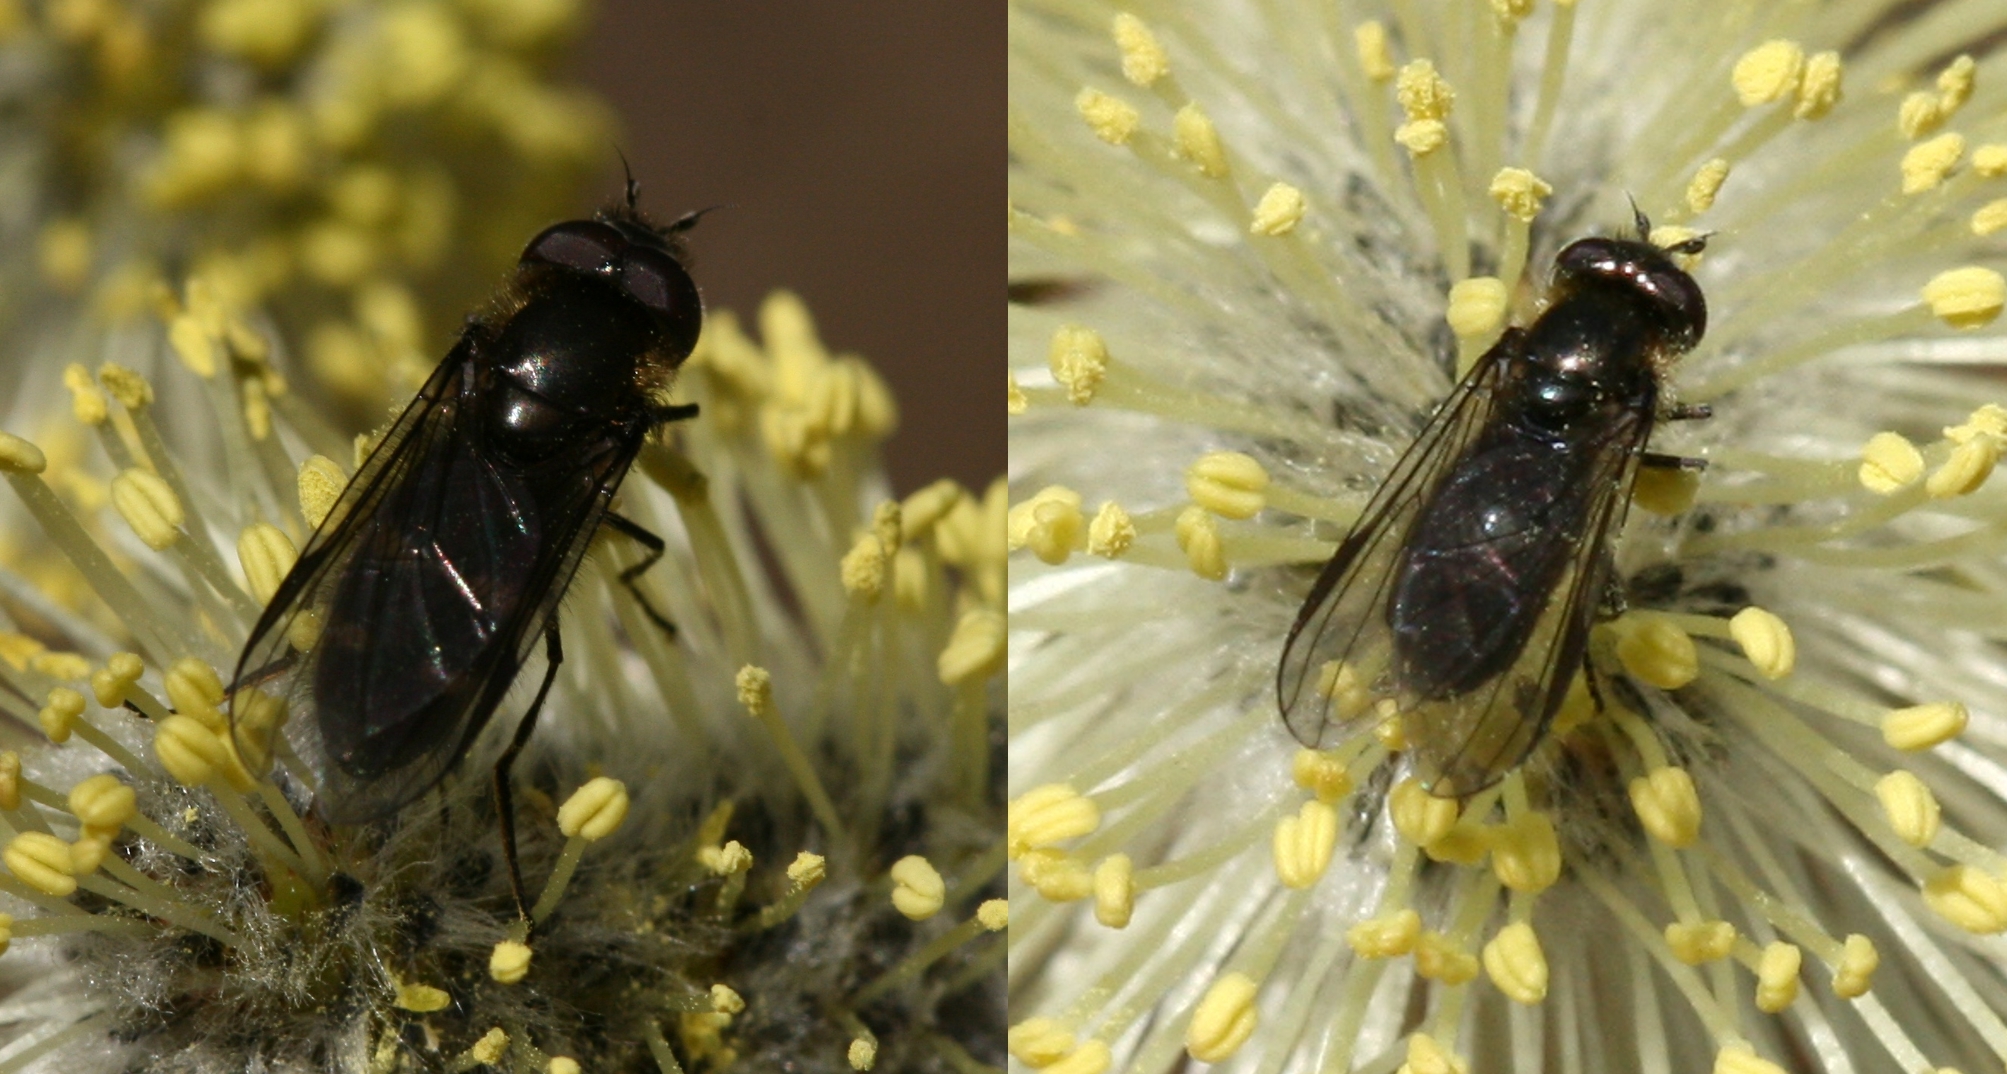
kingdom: Animalia
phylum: Arthropoda
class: Insecta
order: Diptera
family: Syrphidae
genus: Melangyna
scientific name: Melangyna quadrimaculata
